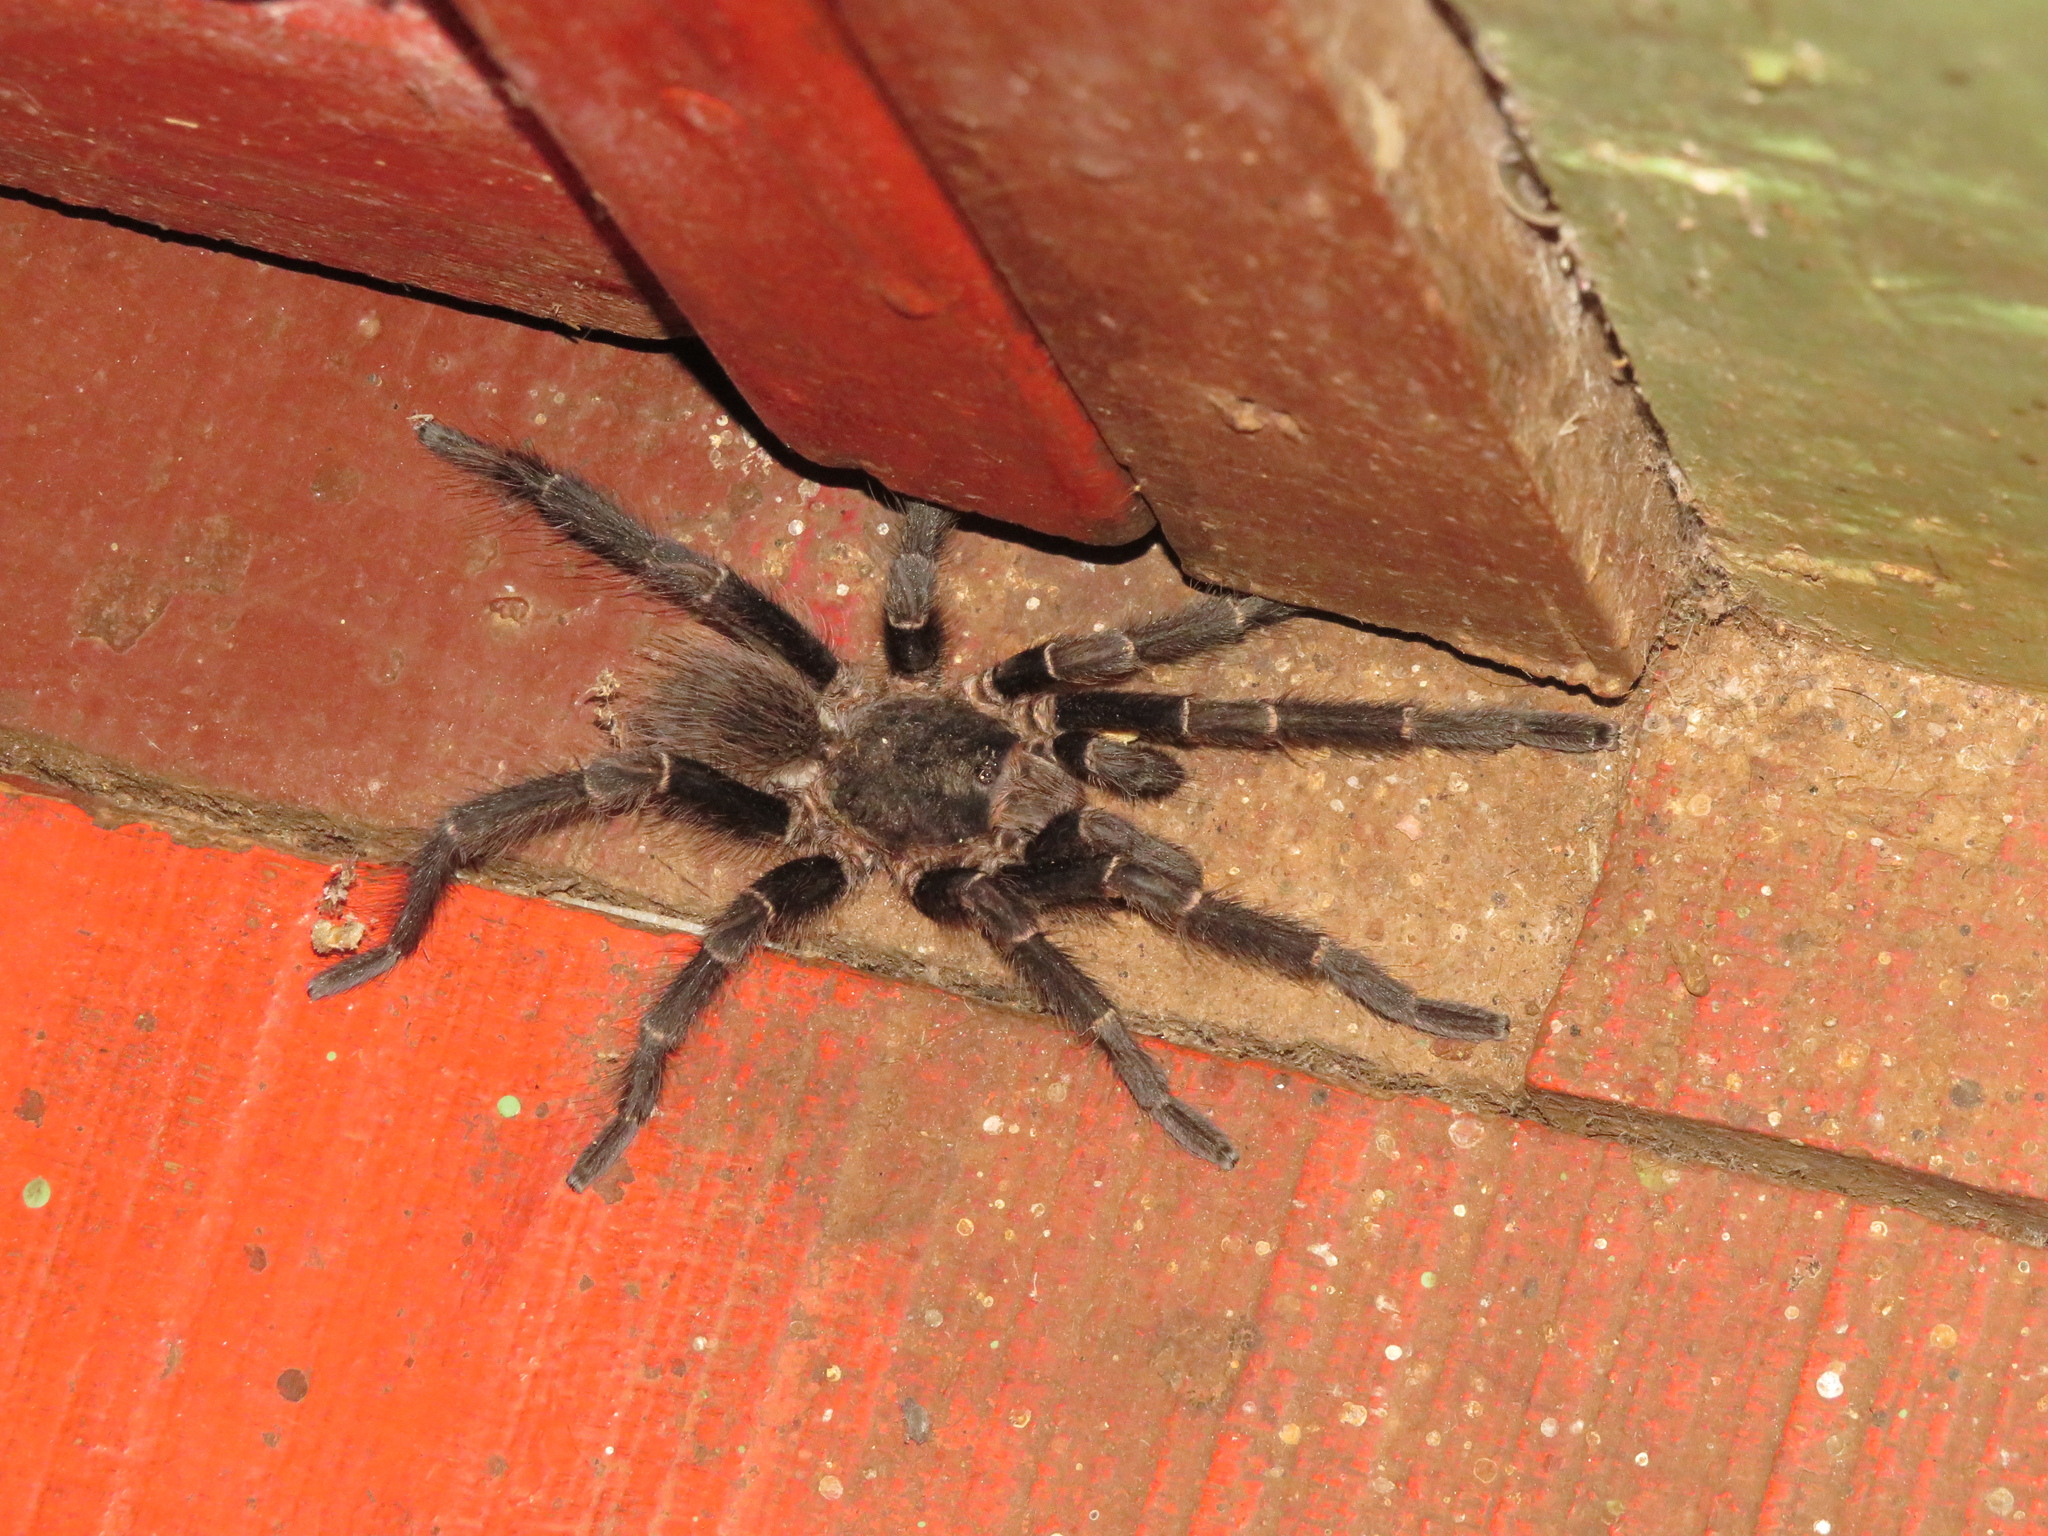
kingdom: Animalia
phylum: Arthropoda
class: Arachnida
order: Araneae
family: Theraphosidae
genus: Pterinopelma
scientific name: Pterinopelma longisternale
